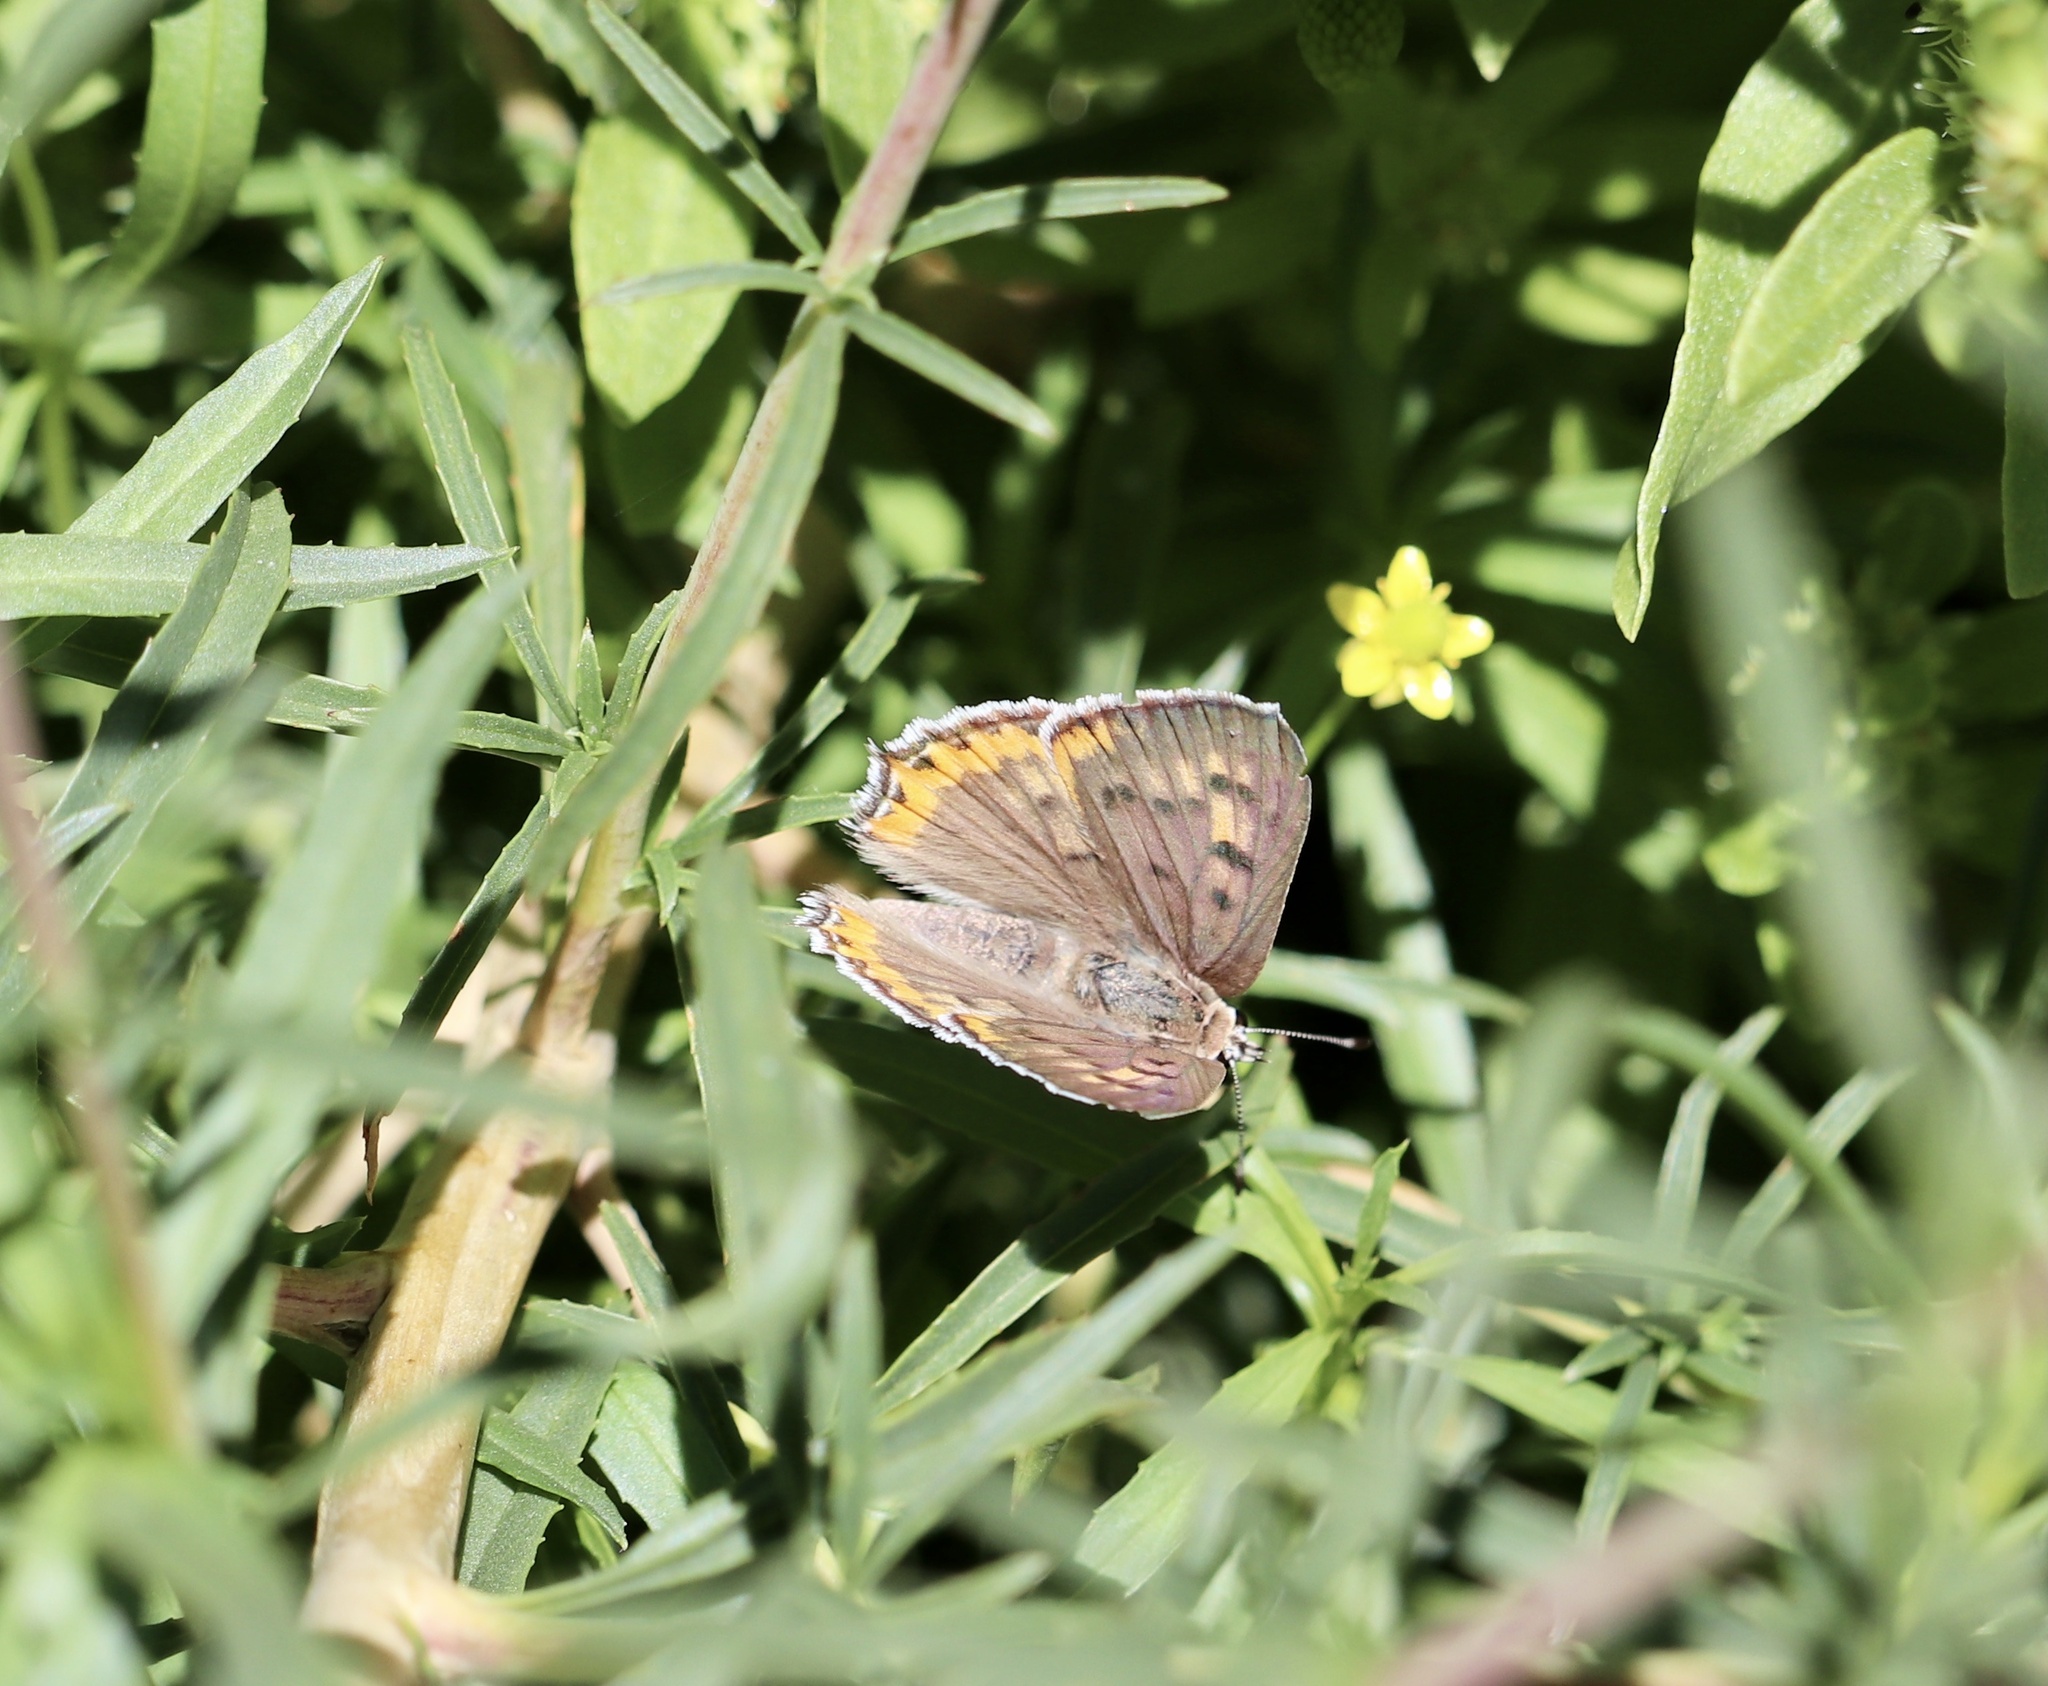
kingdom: Animalia
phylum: Arthropoda
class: Insecta
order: Lepidoptera
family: Lycaenidae
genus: Tharsalea
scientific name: Tharsalea xanthoides
